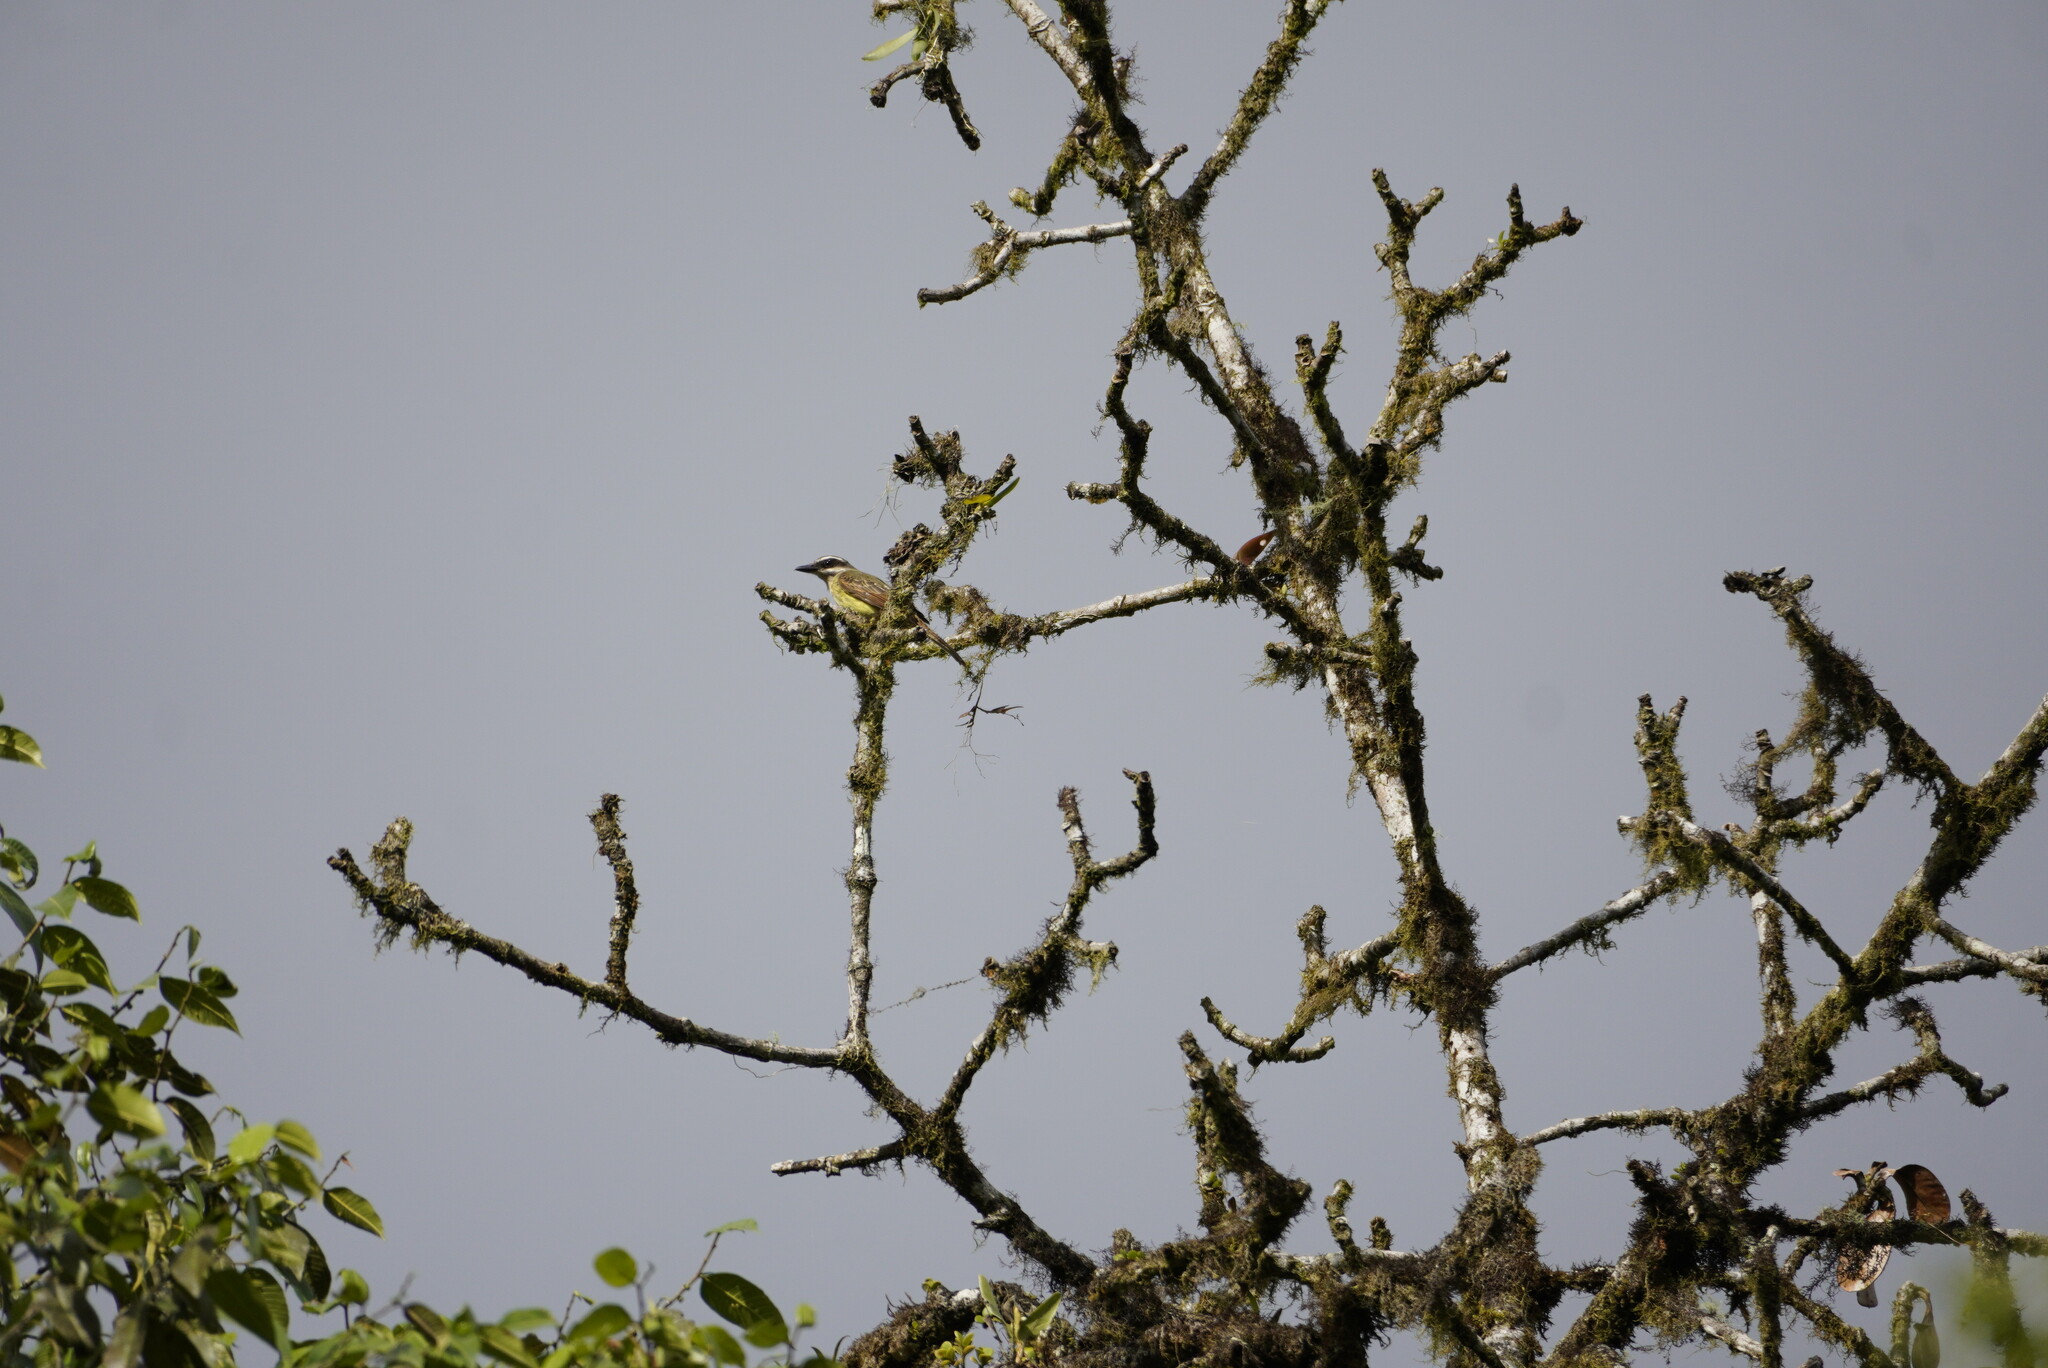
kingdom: Animalia
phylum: Chordata
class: Aves
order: Passeriformes
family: Tyrannidae
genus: Myiodynastes
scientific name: Myiodynastes hemichrysus
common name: Golden-bellied flycatcher
